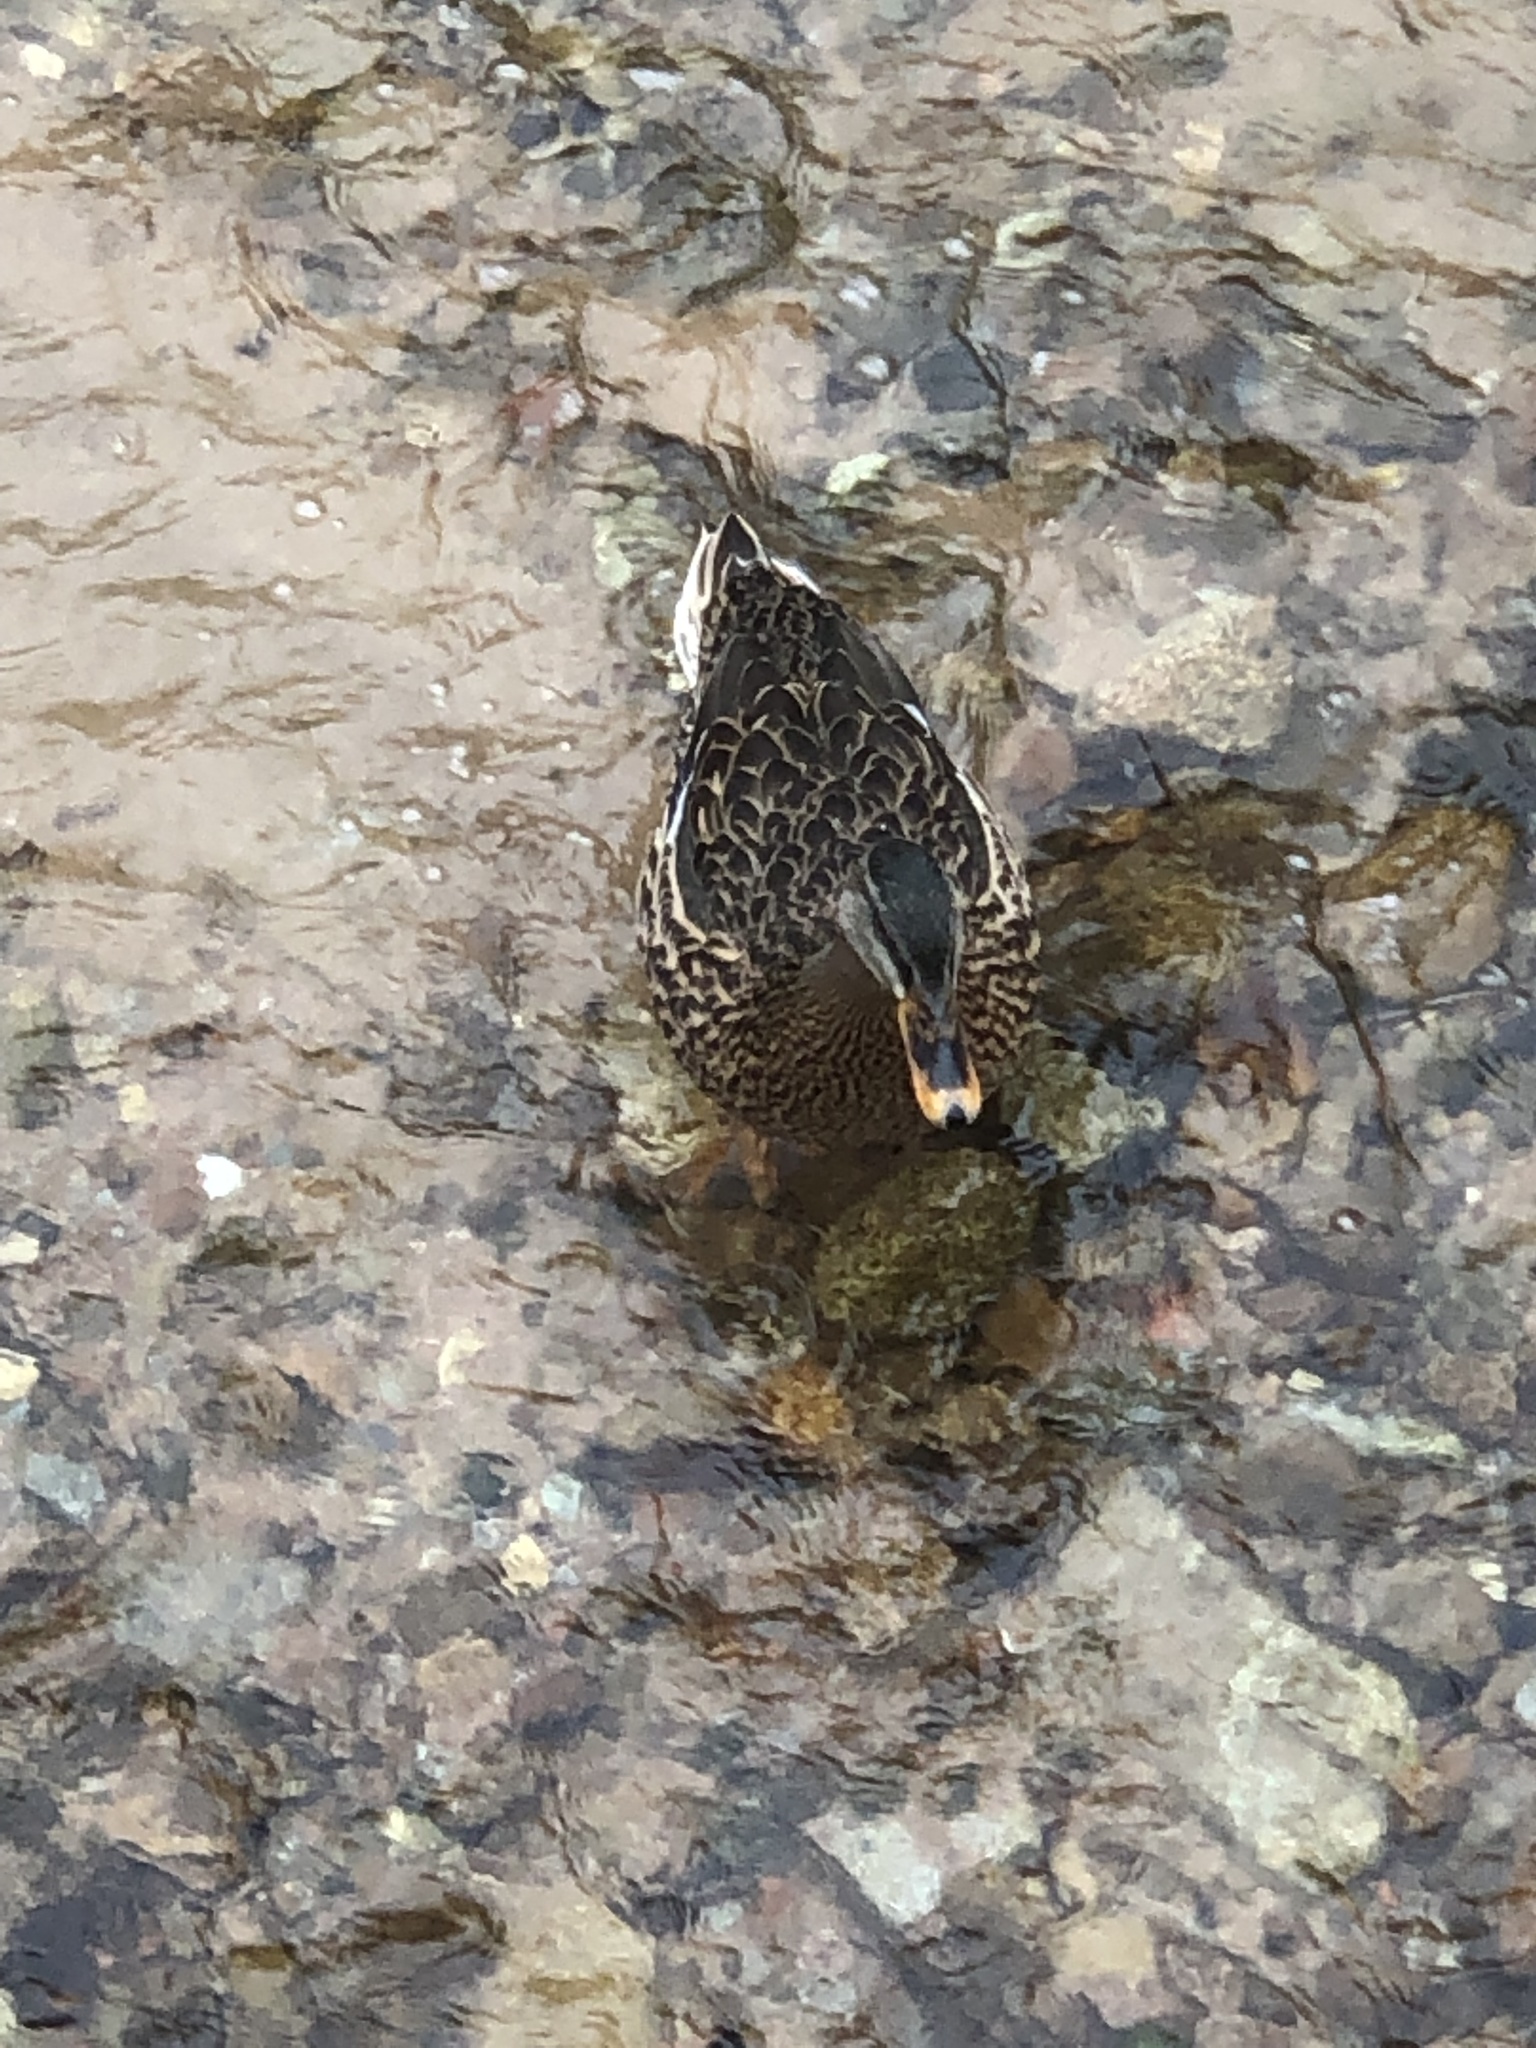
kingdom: Animalia
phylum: Chordata
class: Aves
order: Anseriformes
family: Anatidae
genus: Anas
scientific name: Anas platyrhynchos
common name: Mallard
